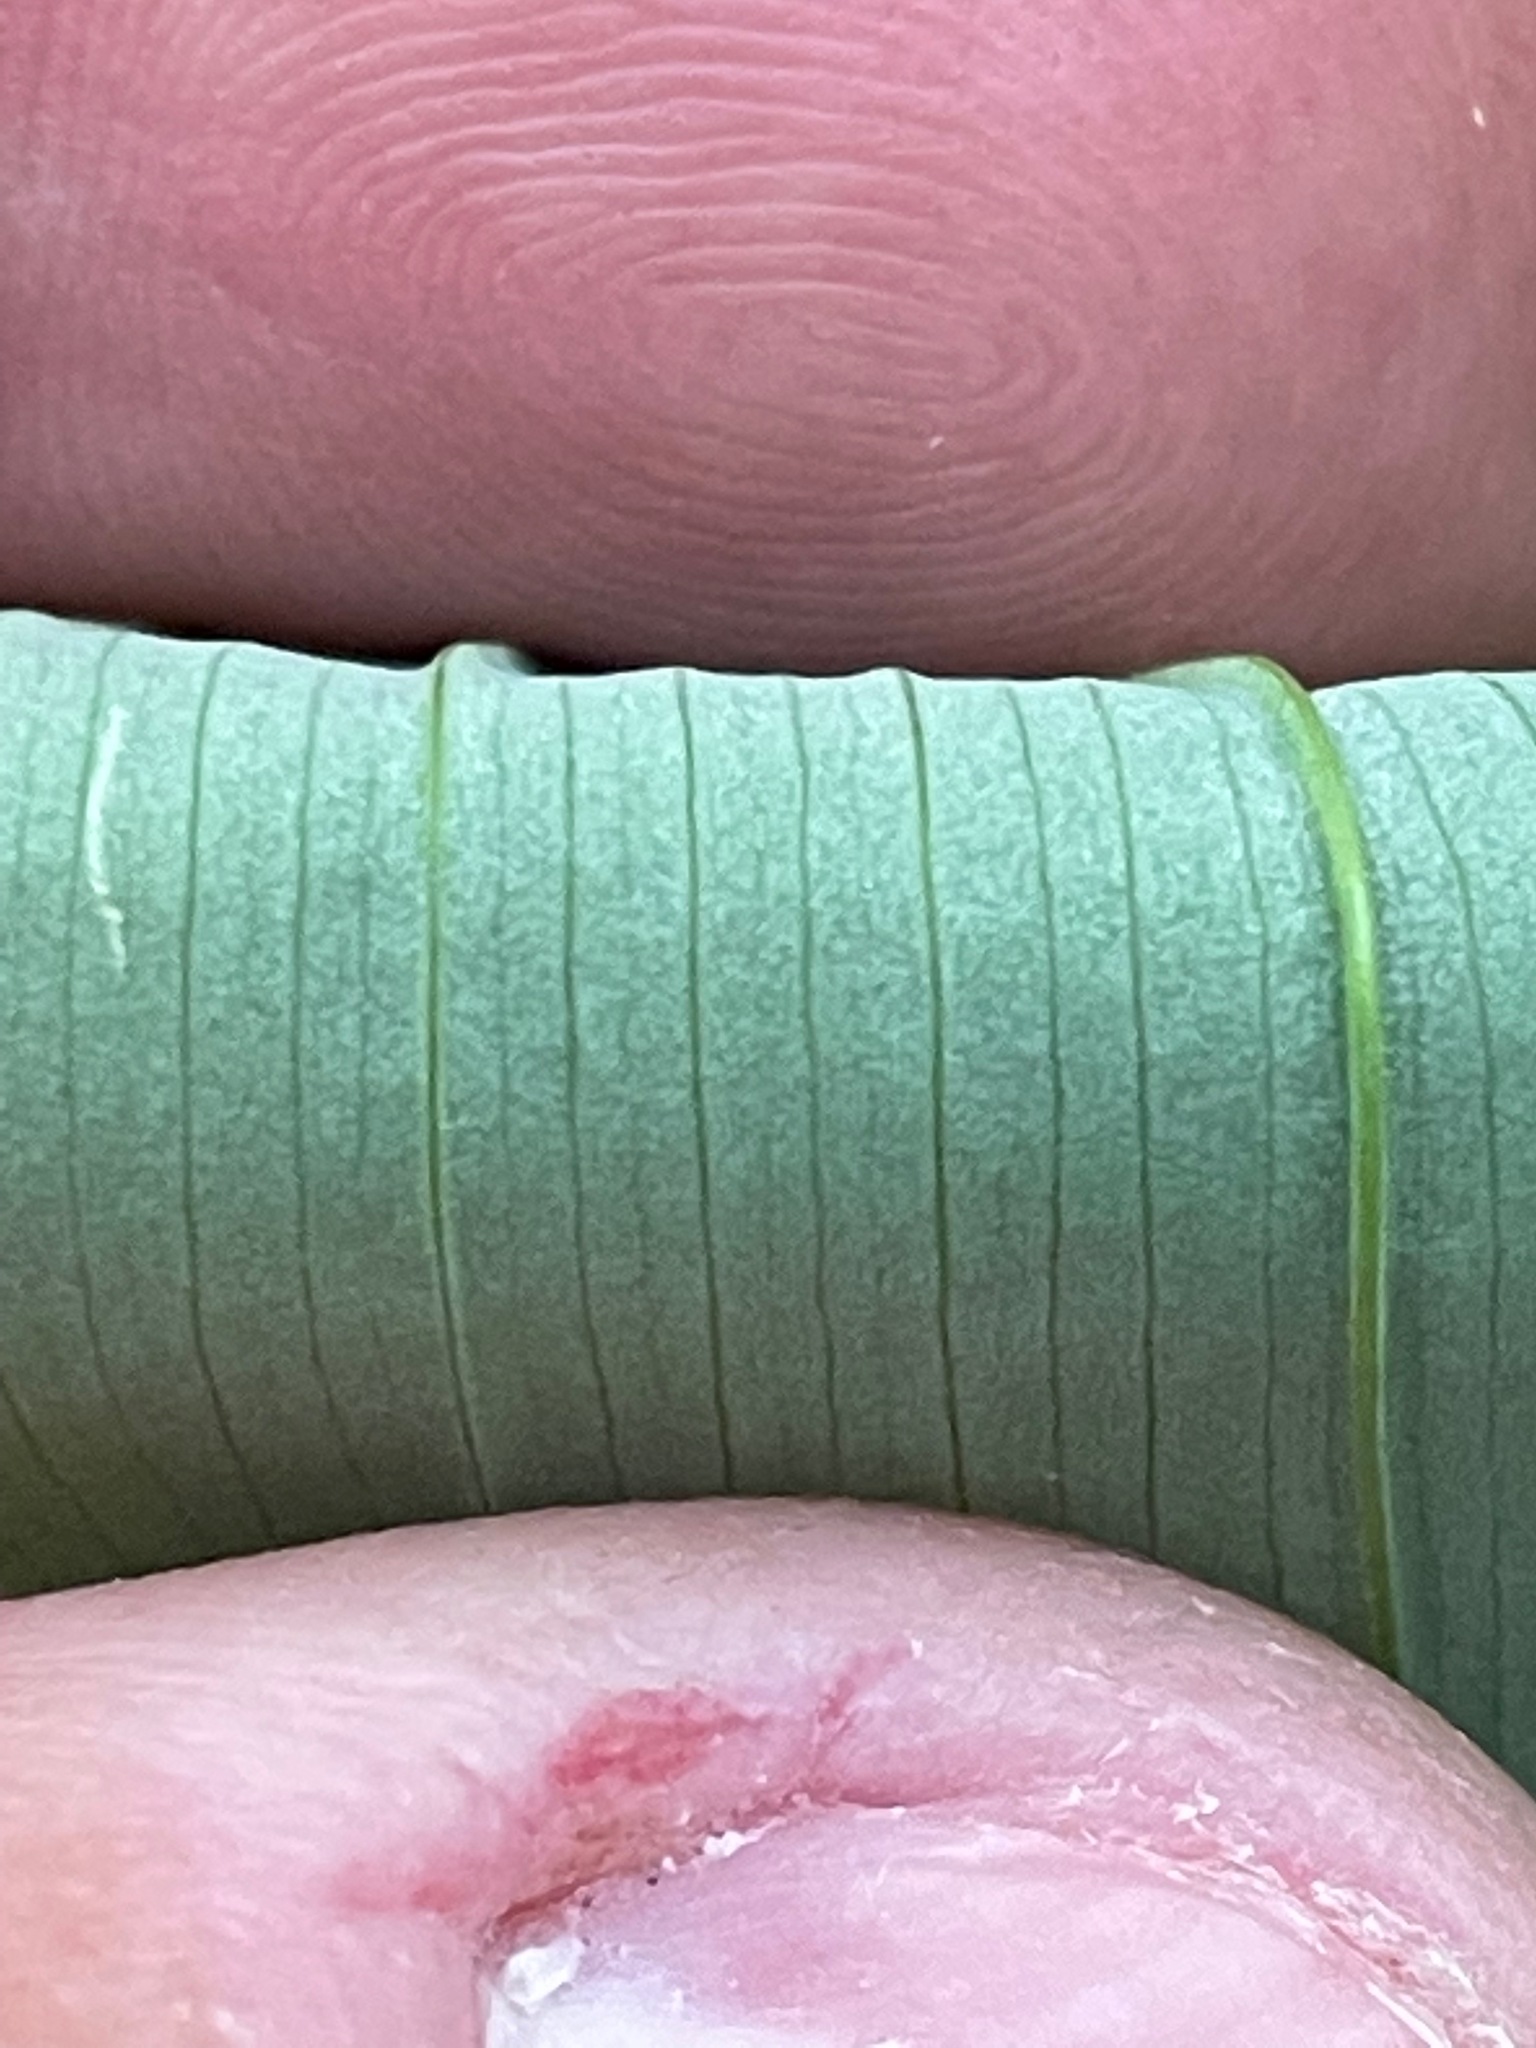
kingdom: Plantae
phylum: Tracheophyta
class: Liliopsida
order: Liliales
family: Colchicaceae
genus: Uvularia
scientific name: Uvularia sessilifolia
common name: Straw-lily
